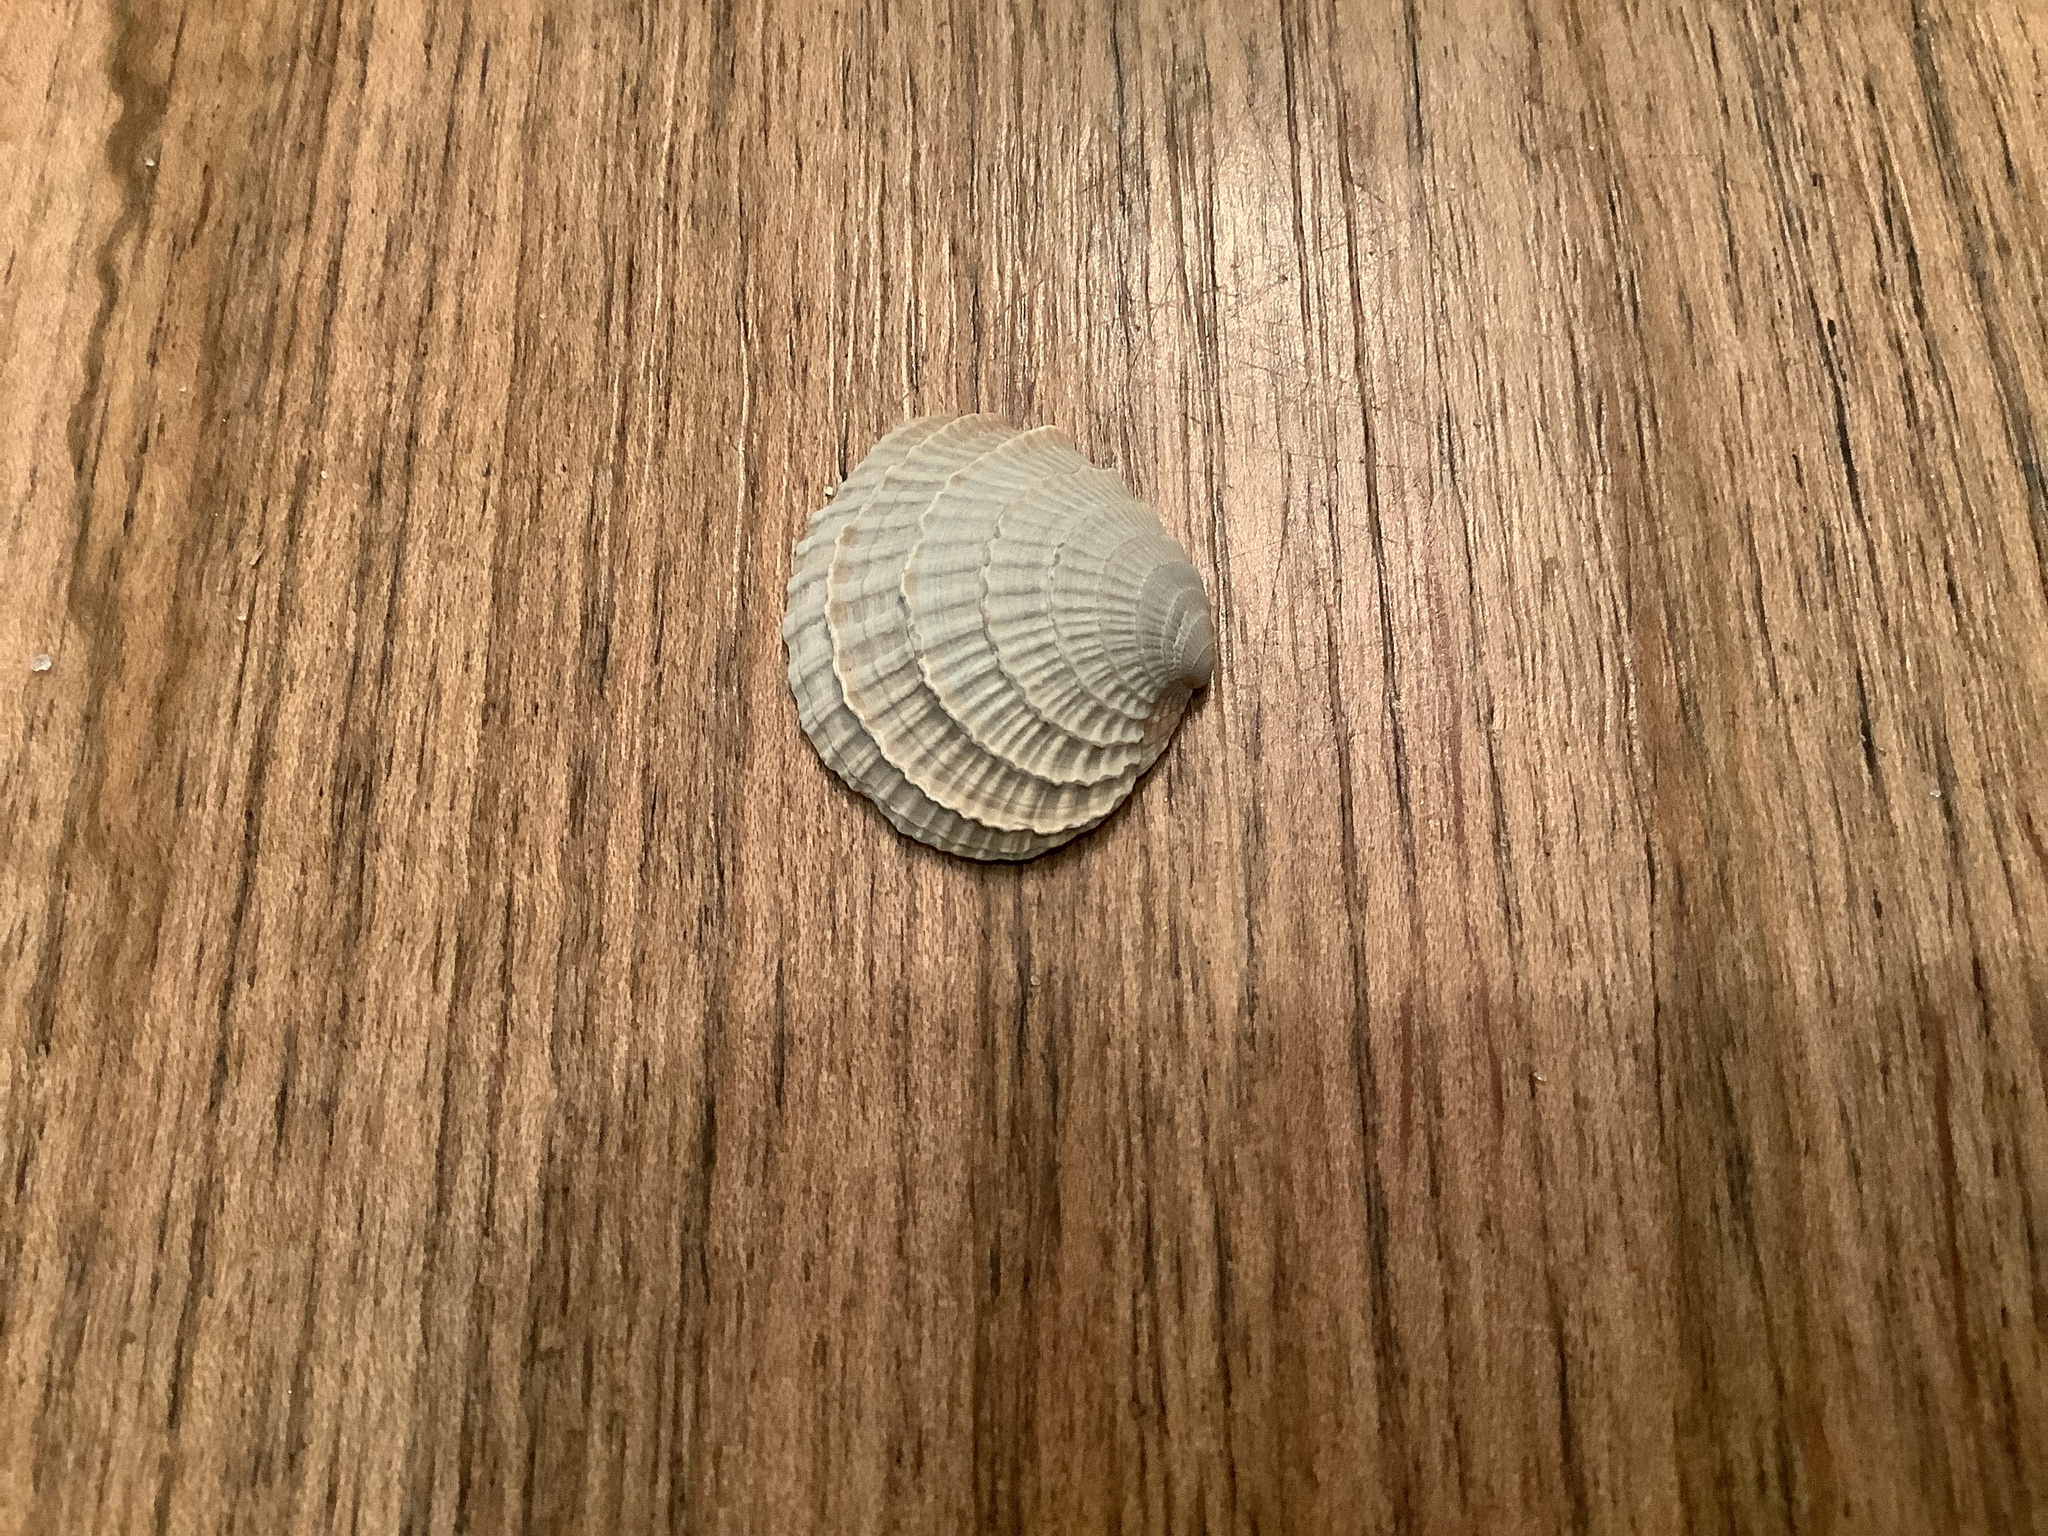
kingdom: Animalia
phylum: Mollusca
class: Bivalvia
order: Venerida
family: Veneridae
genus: Chione
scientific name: Chione elevata
